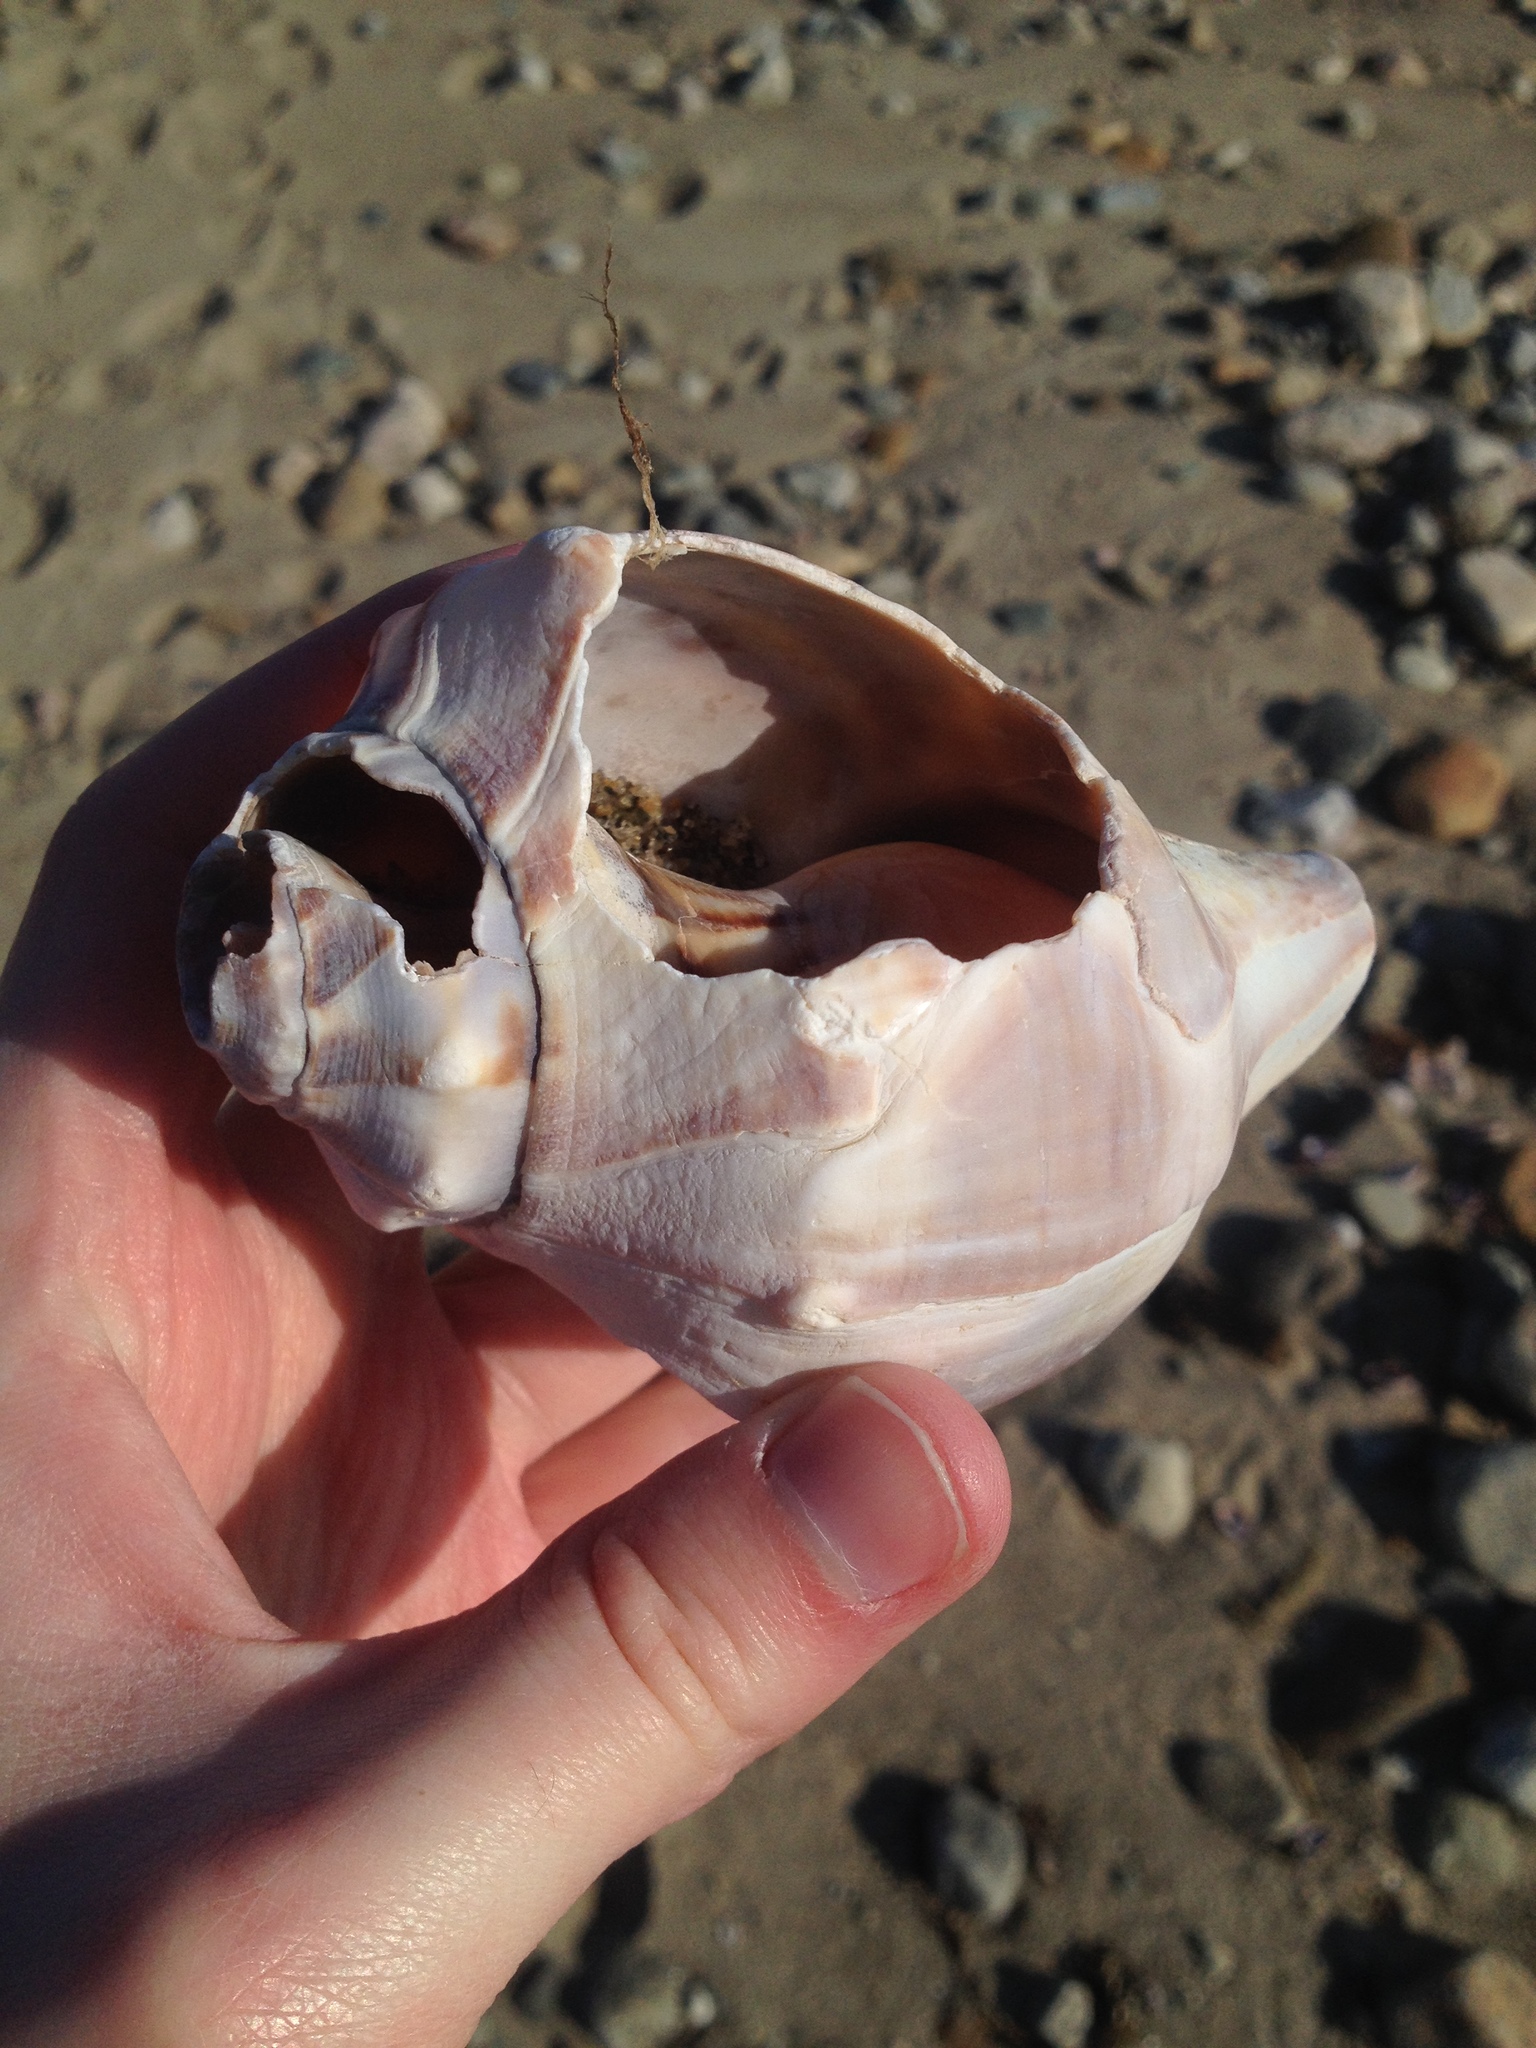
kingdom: Animalia
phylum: Mollusca
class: Gastropoda
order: Neogastropoda
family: Busyconidae
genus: Busycon
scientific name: Busycon carica
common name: Knobbed whelk
